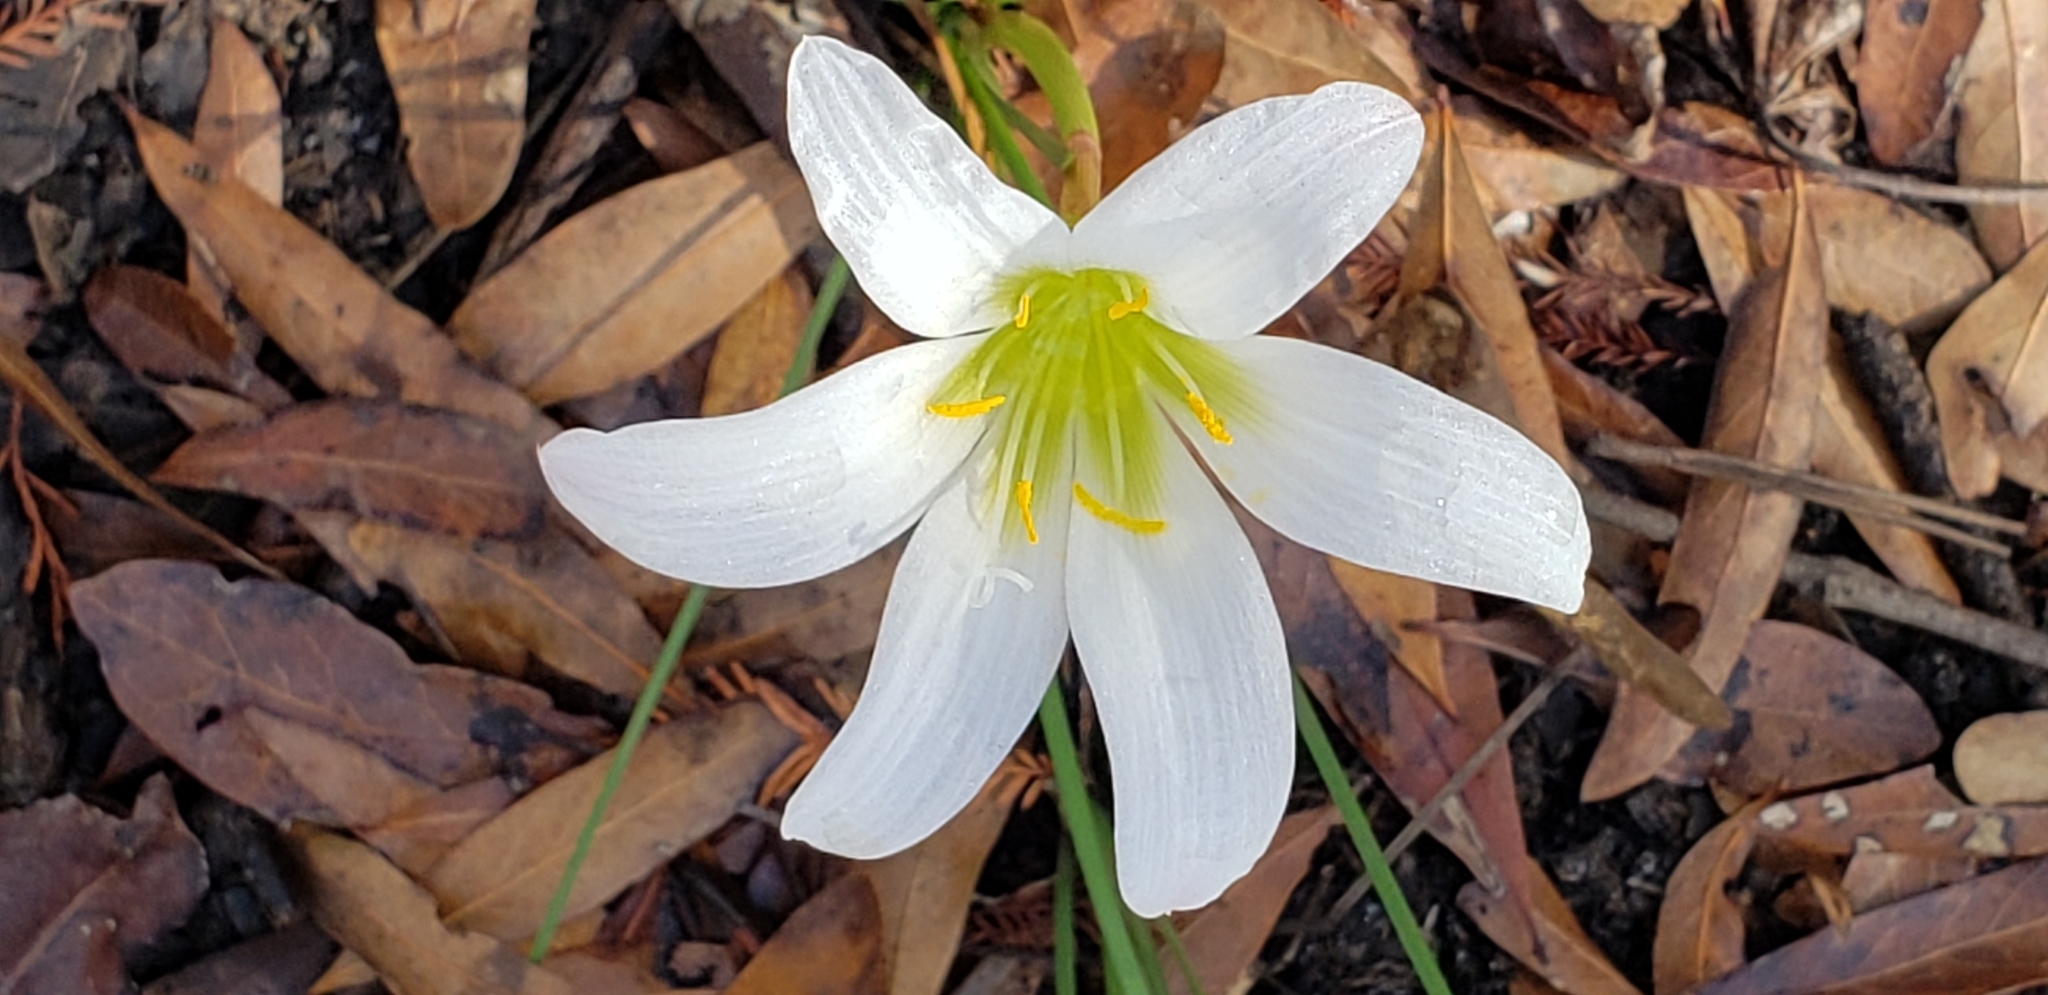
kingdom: Plantae
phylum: Tracheophyta
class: Liliopsida
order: Asparagales
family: Amaryllidaceae
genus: Zephyranthes
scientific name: Zephyranthes atamasco
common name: Atamasco lily
